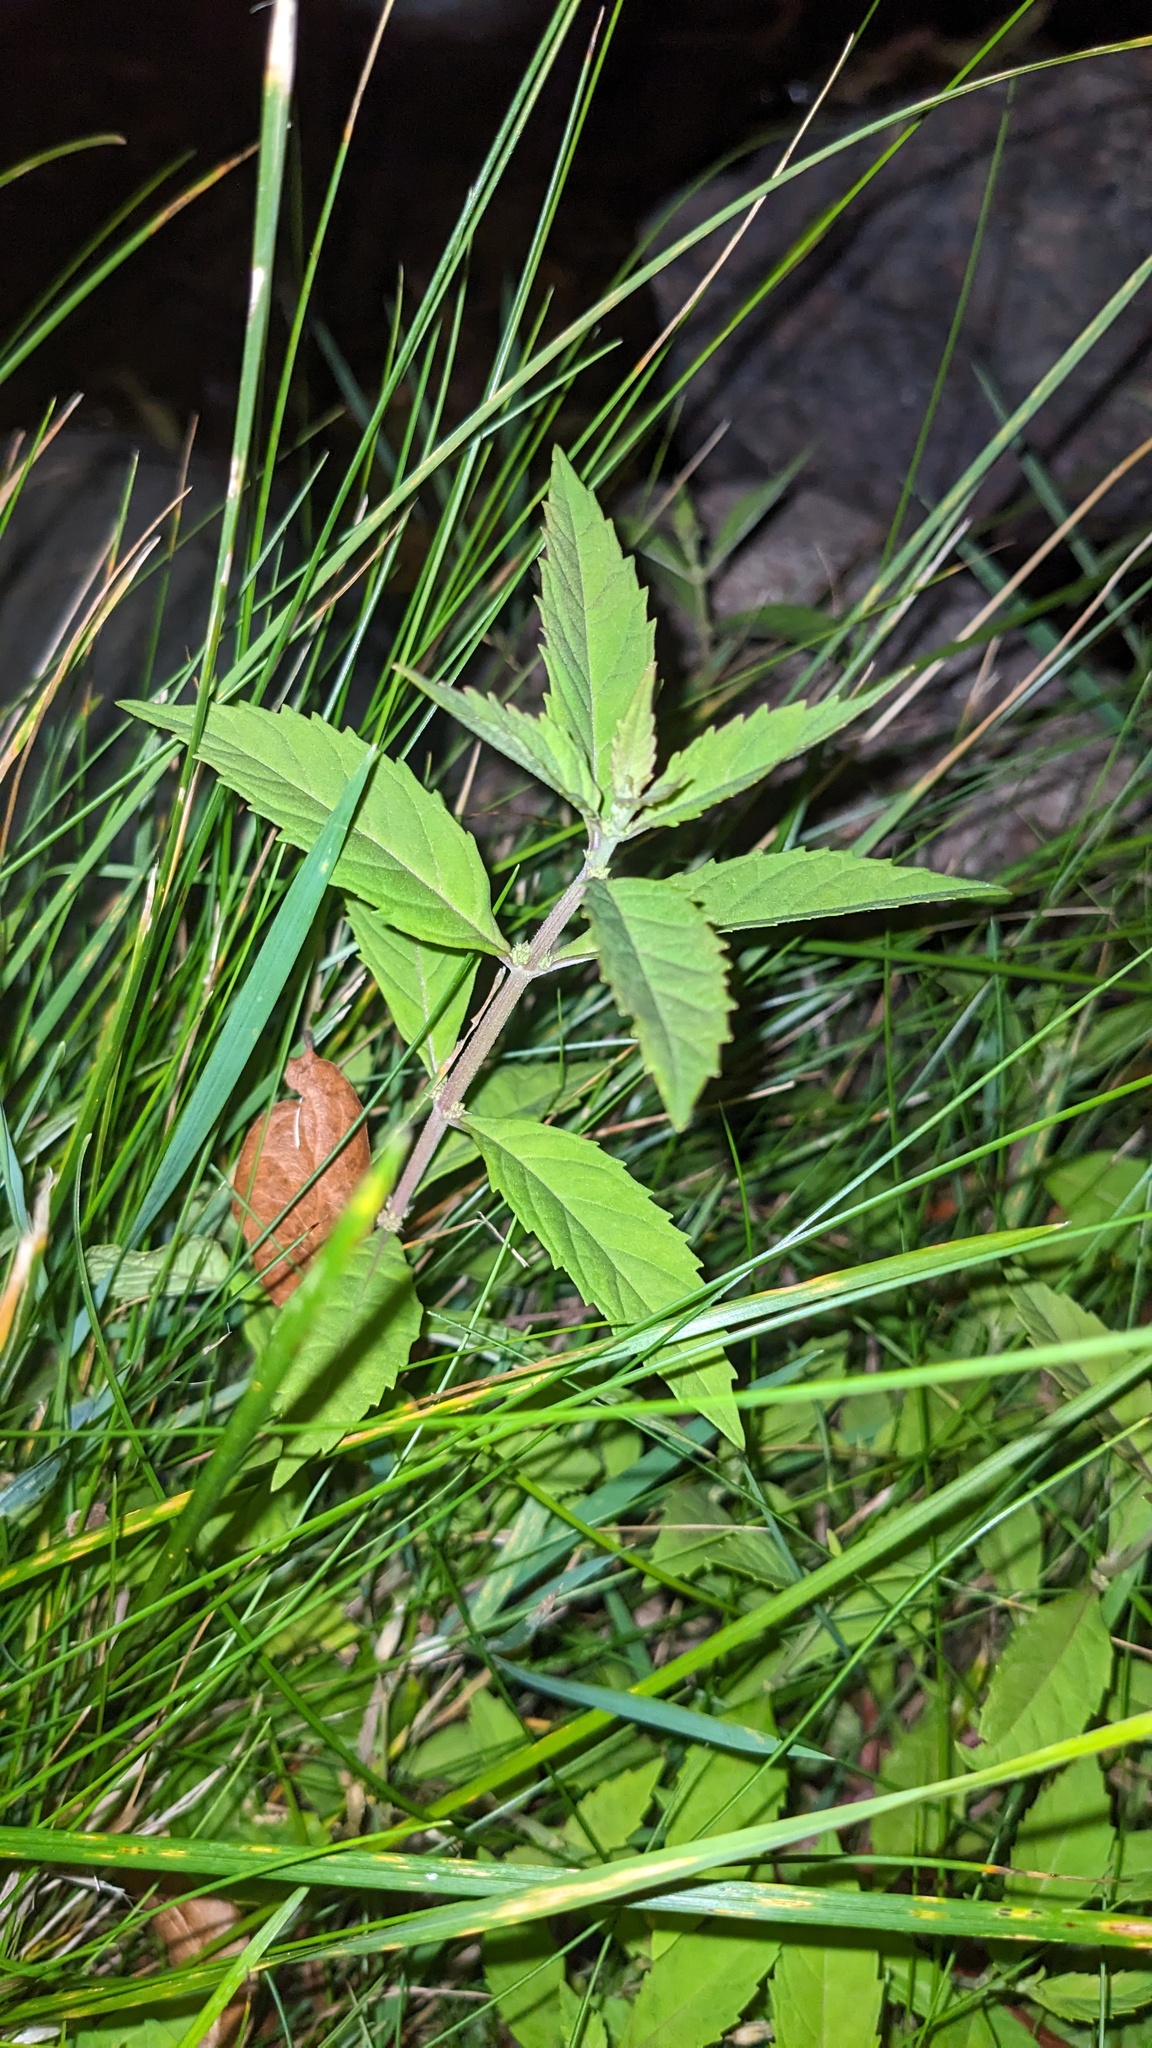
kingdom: Plantae
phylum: Tracheophyta
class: Magnoliopsida
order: Lamiales
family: Lamiaceae
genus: Lycopus
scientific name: Lycopus uniflorus
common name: Northern bugleweed
